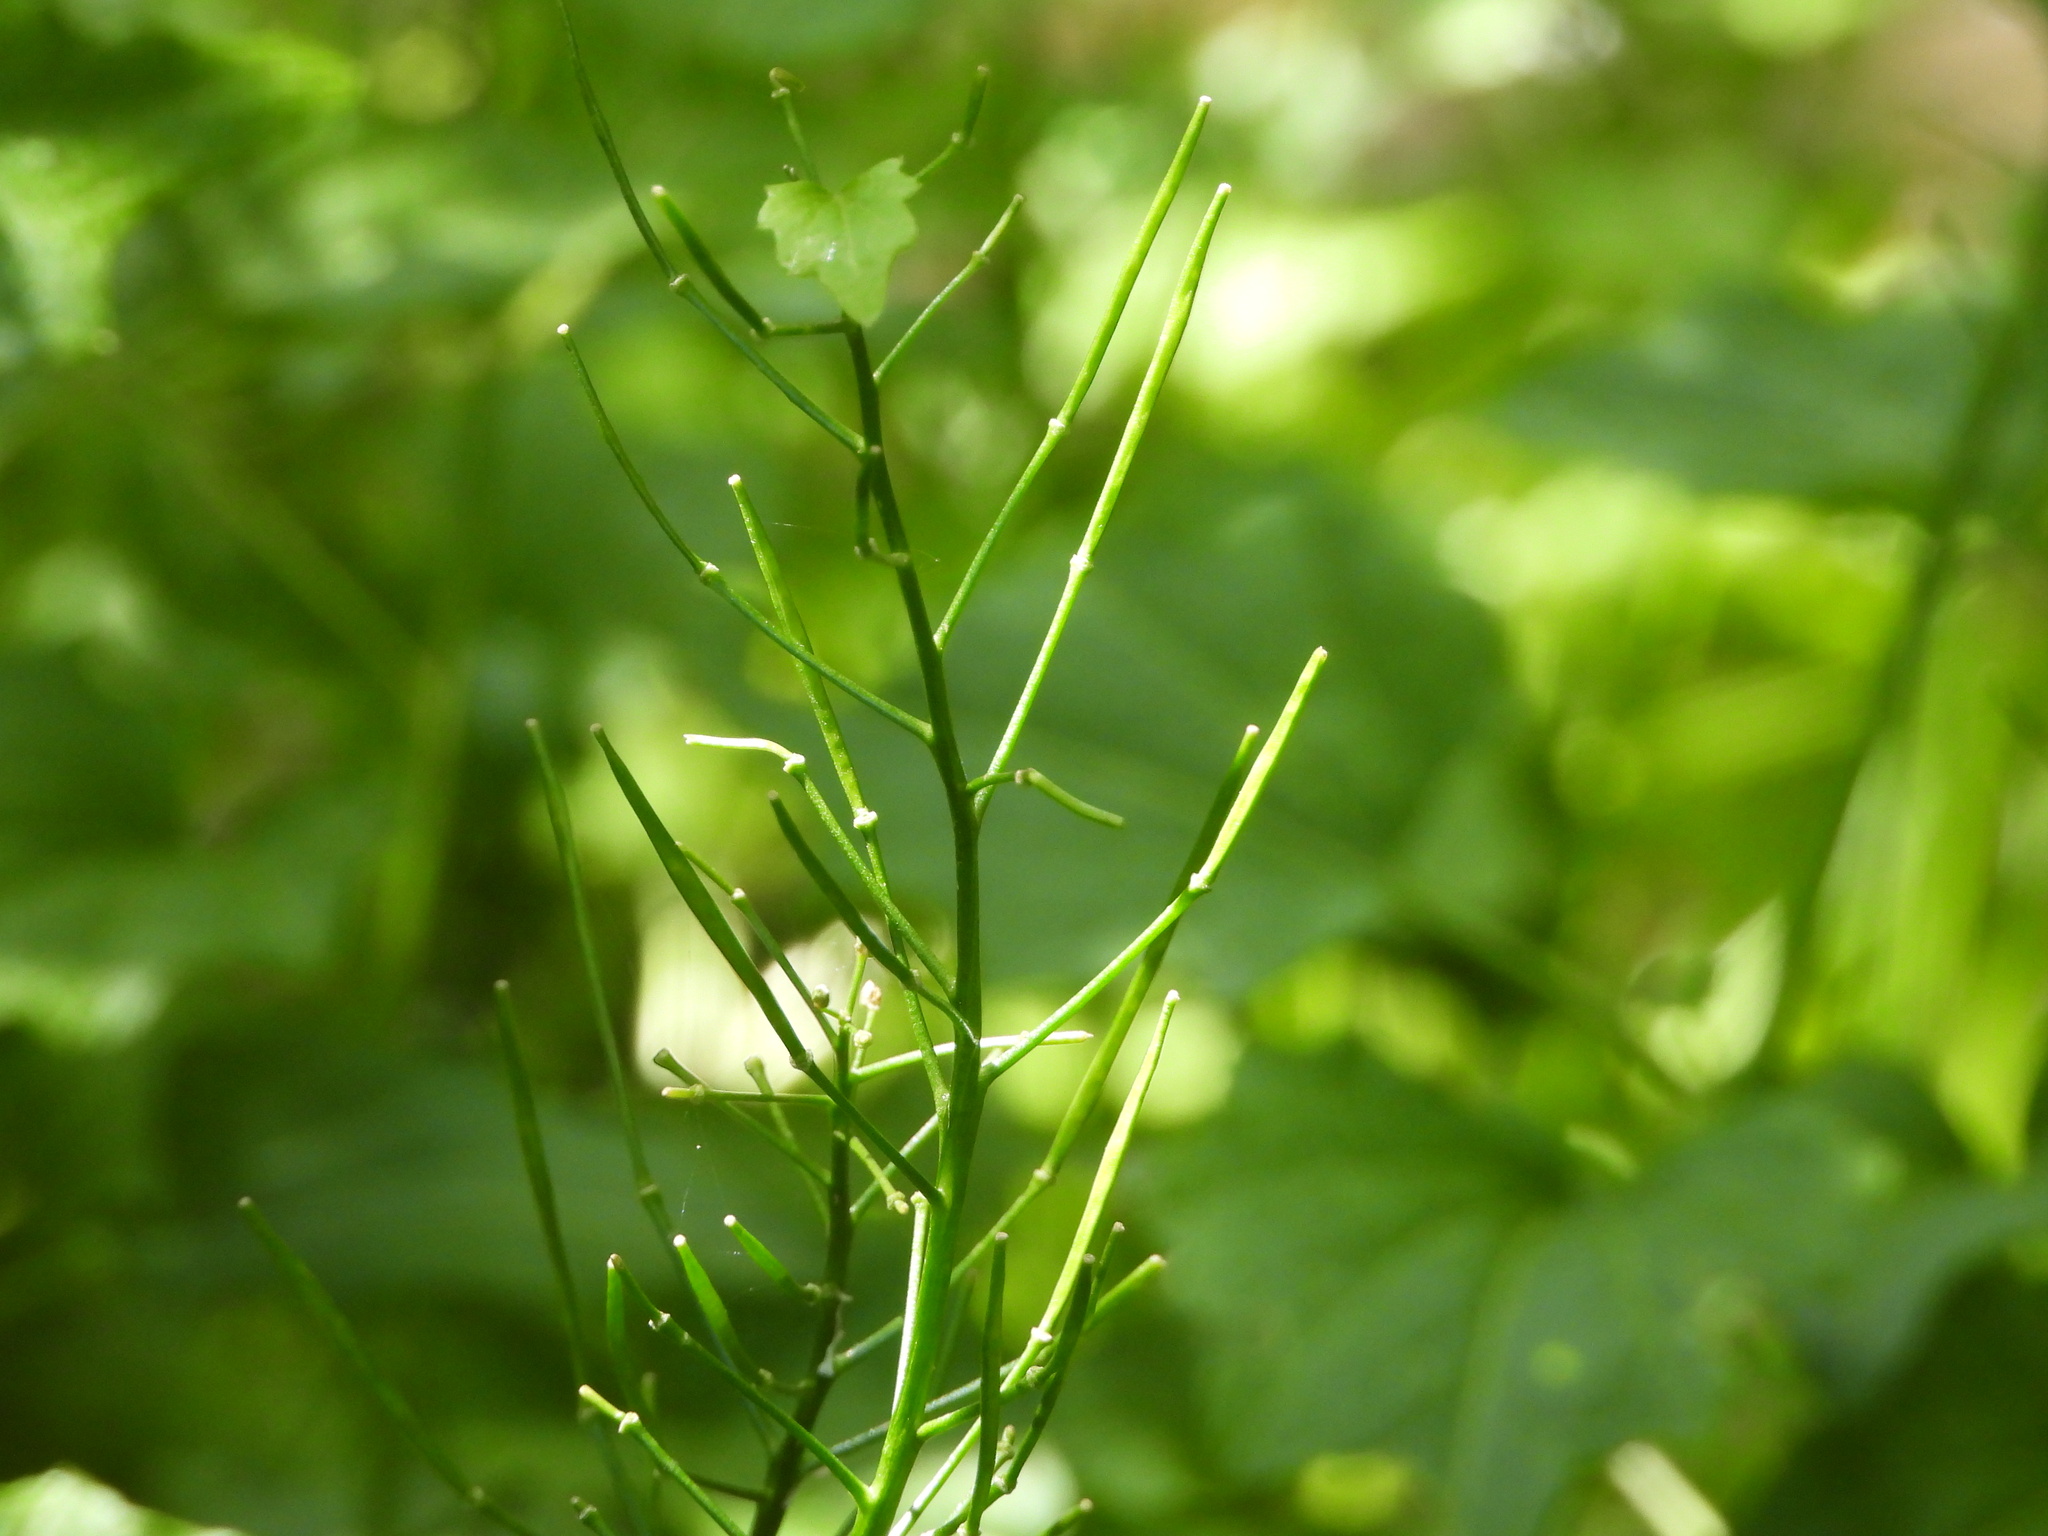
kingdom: Plantae
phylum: Tracheophyta
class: Magnoliopsida
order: Brassicales
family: Brassicaceae
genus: Cardamine
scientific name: Cardamine cordifolia
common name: Heart-leaf bittercress
